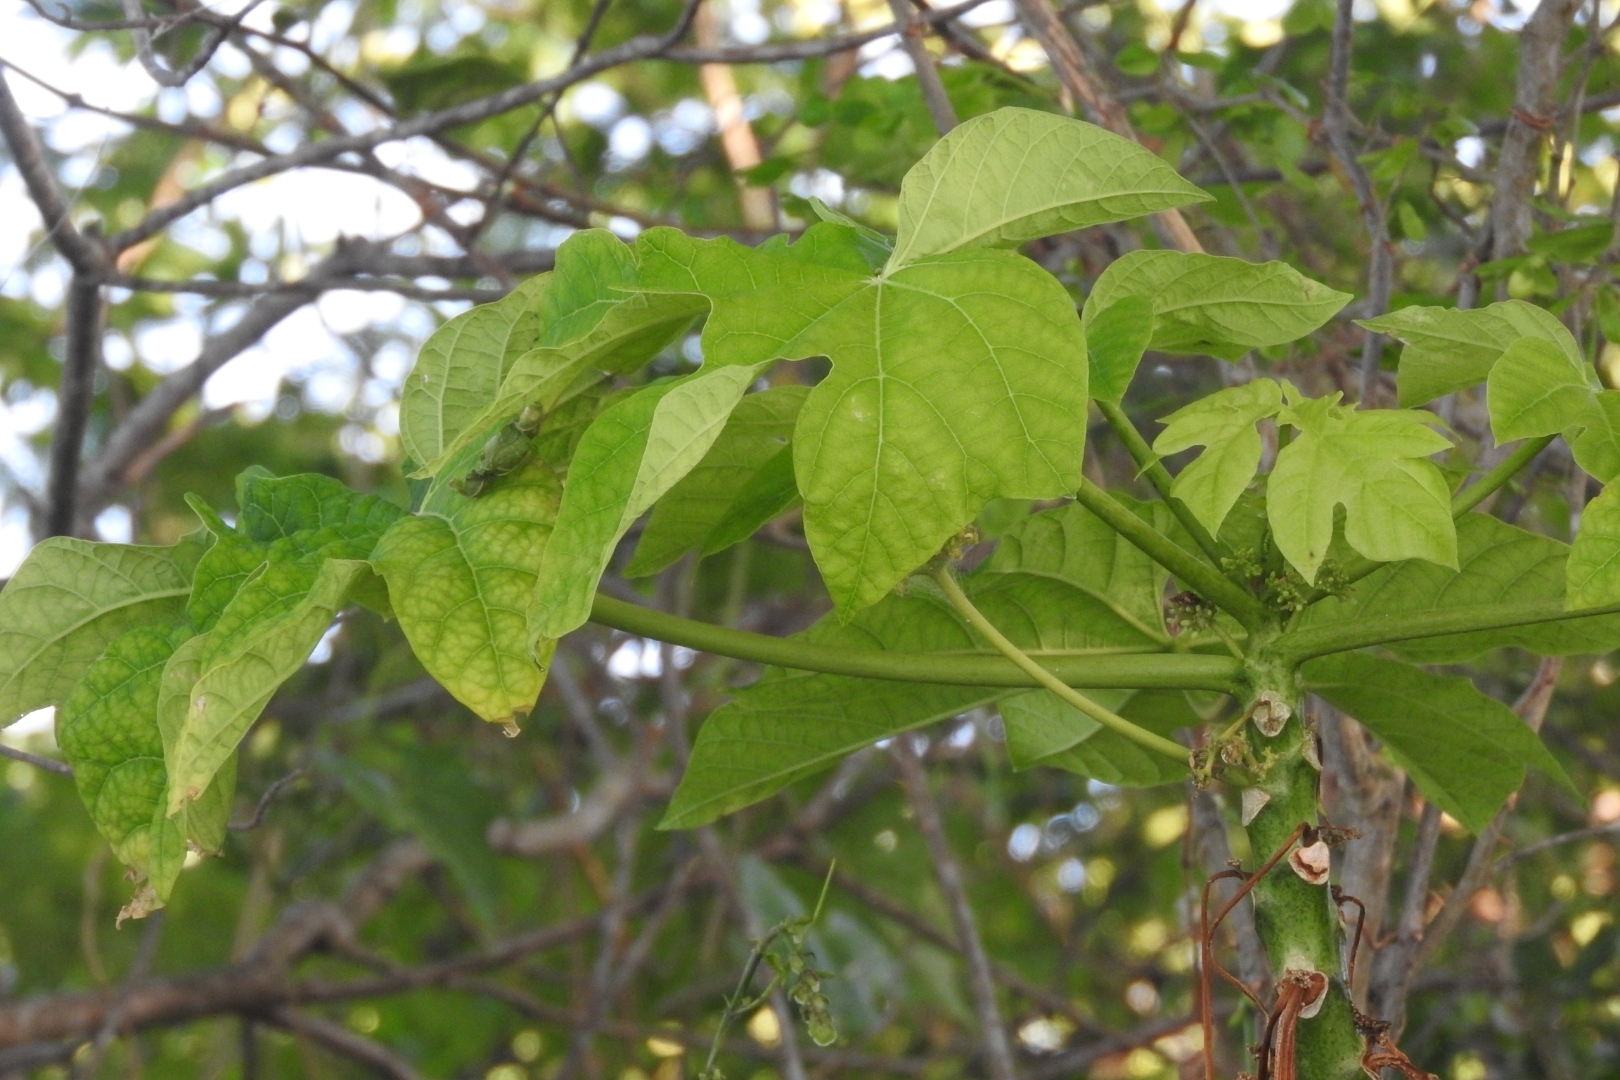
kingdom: Plantae
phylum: Tracheophyta
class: Magnoliopsida
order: Brassicales
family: Caricaceae
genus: Carica
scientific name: Carica papaya
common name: Papaya
